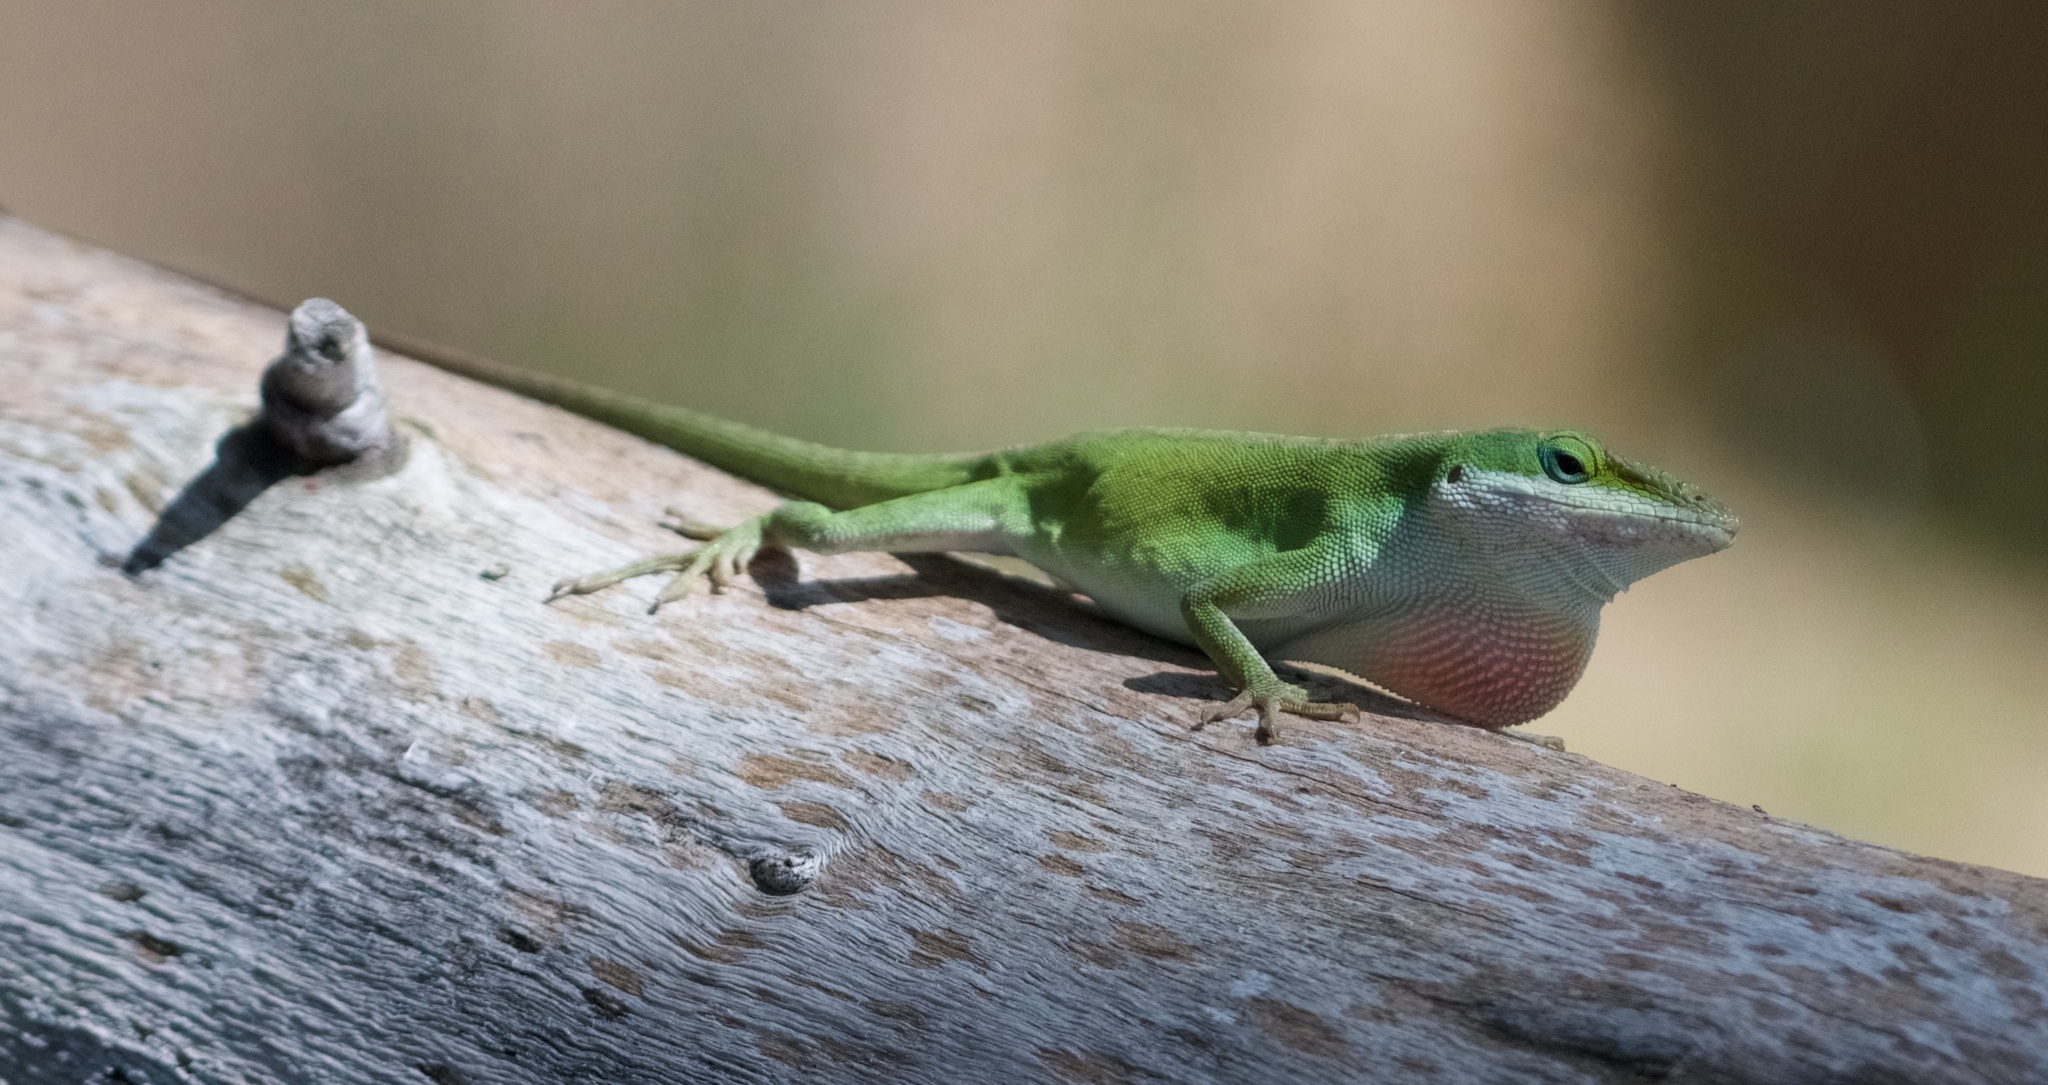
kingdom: Animalia
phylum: Chordata
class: Squamata
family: Dactyloidae
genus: Anolis
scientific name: Anolis carolinensis
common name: Green anole
